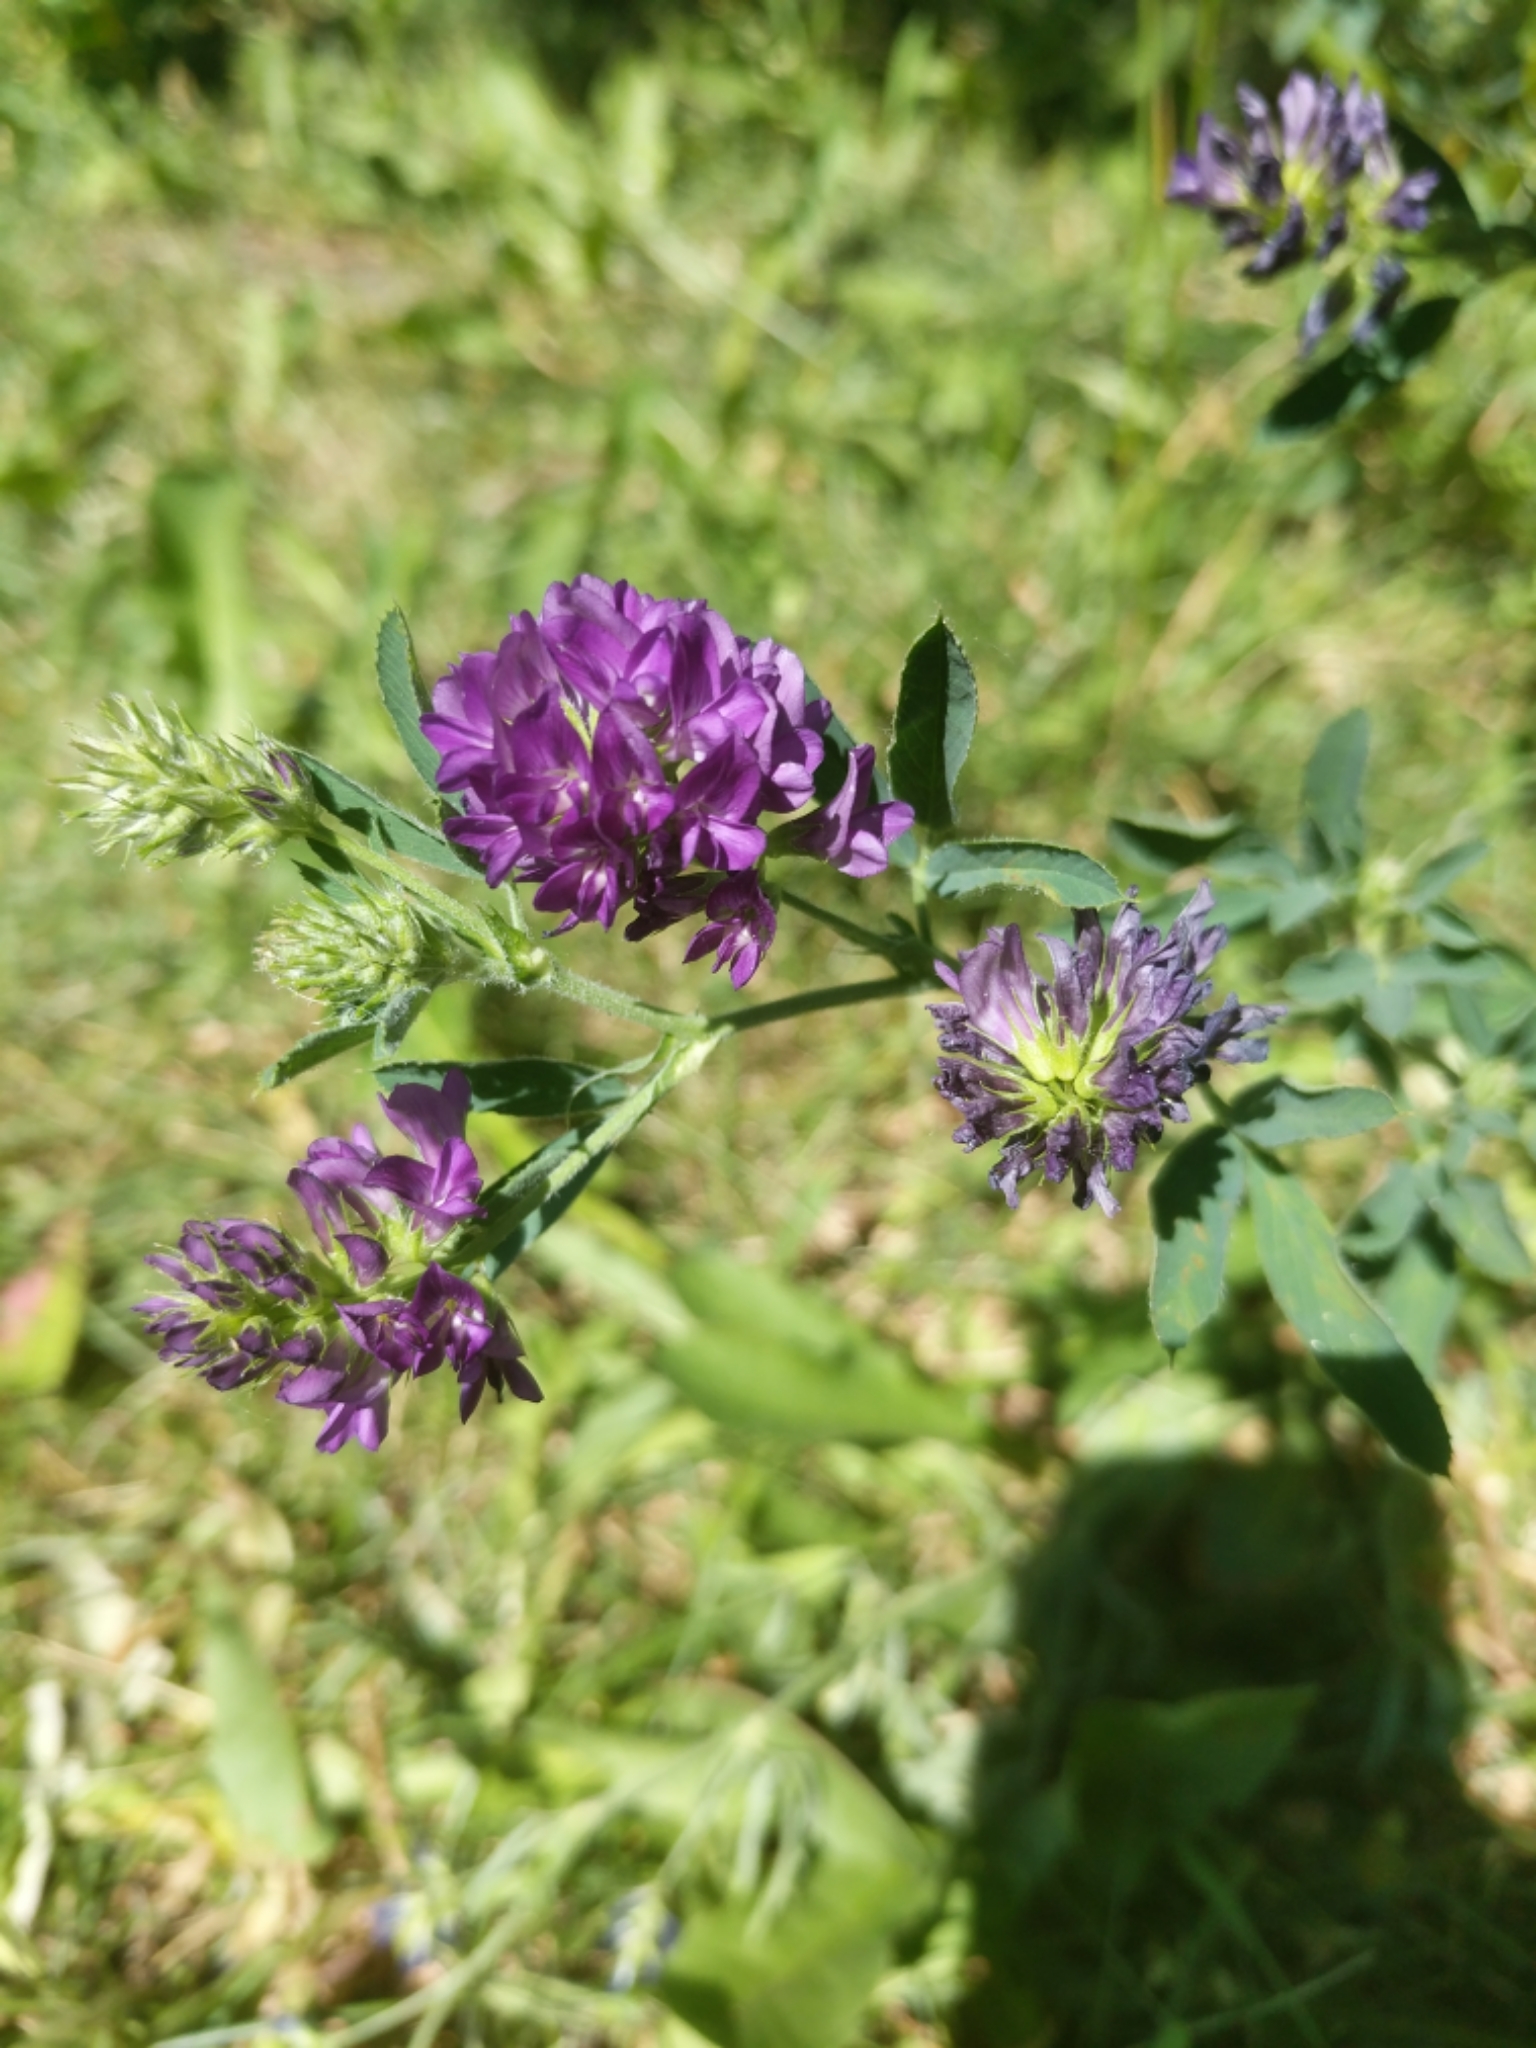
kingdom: Plantae
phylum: Tracheophyta
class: Magnoliopsida
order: Fabales
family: Fabaceae
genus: Medicago
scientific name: Medicago sativa
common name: Alfalfa
